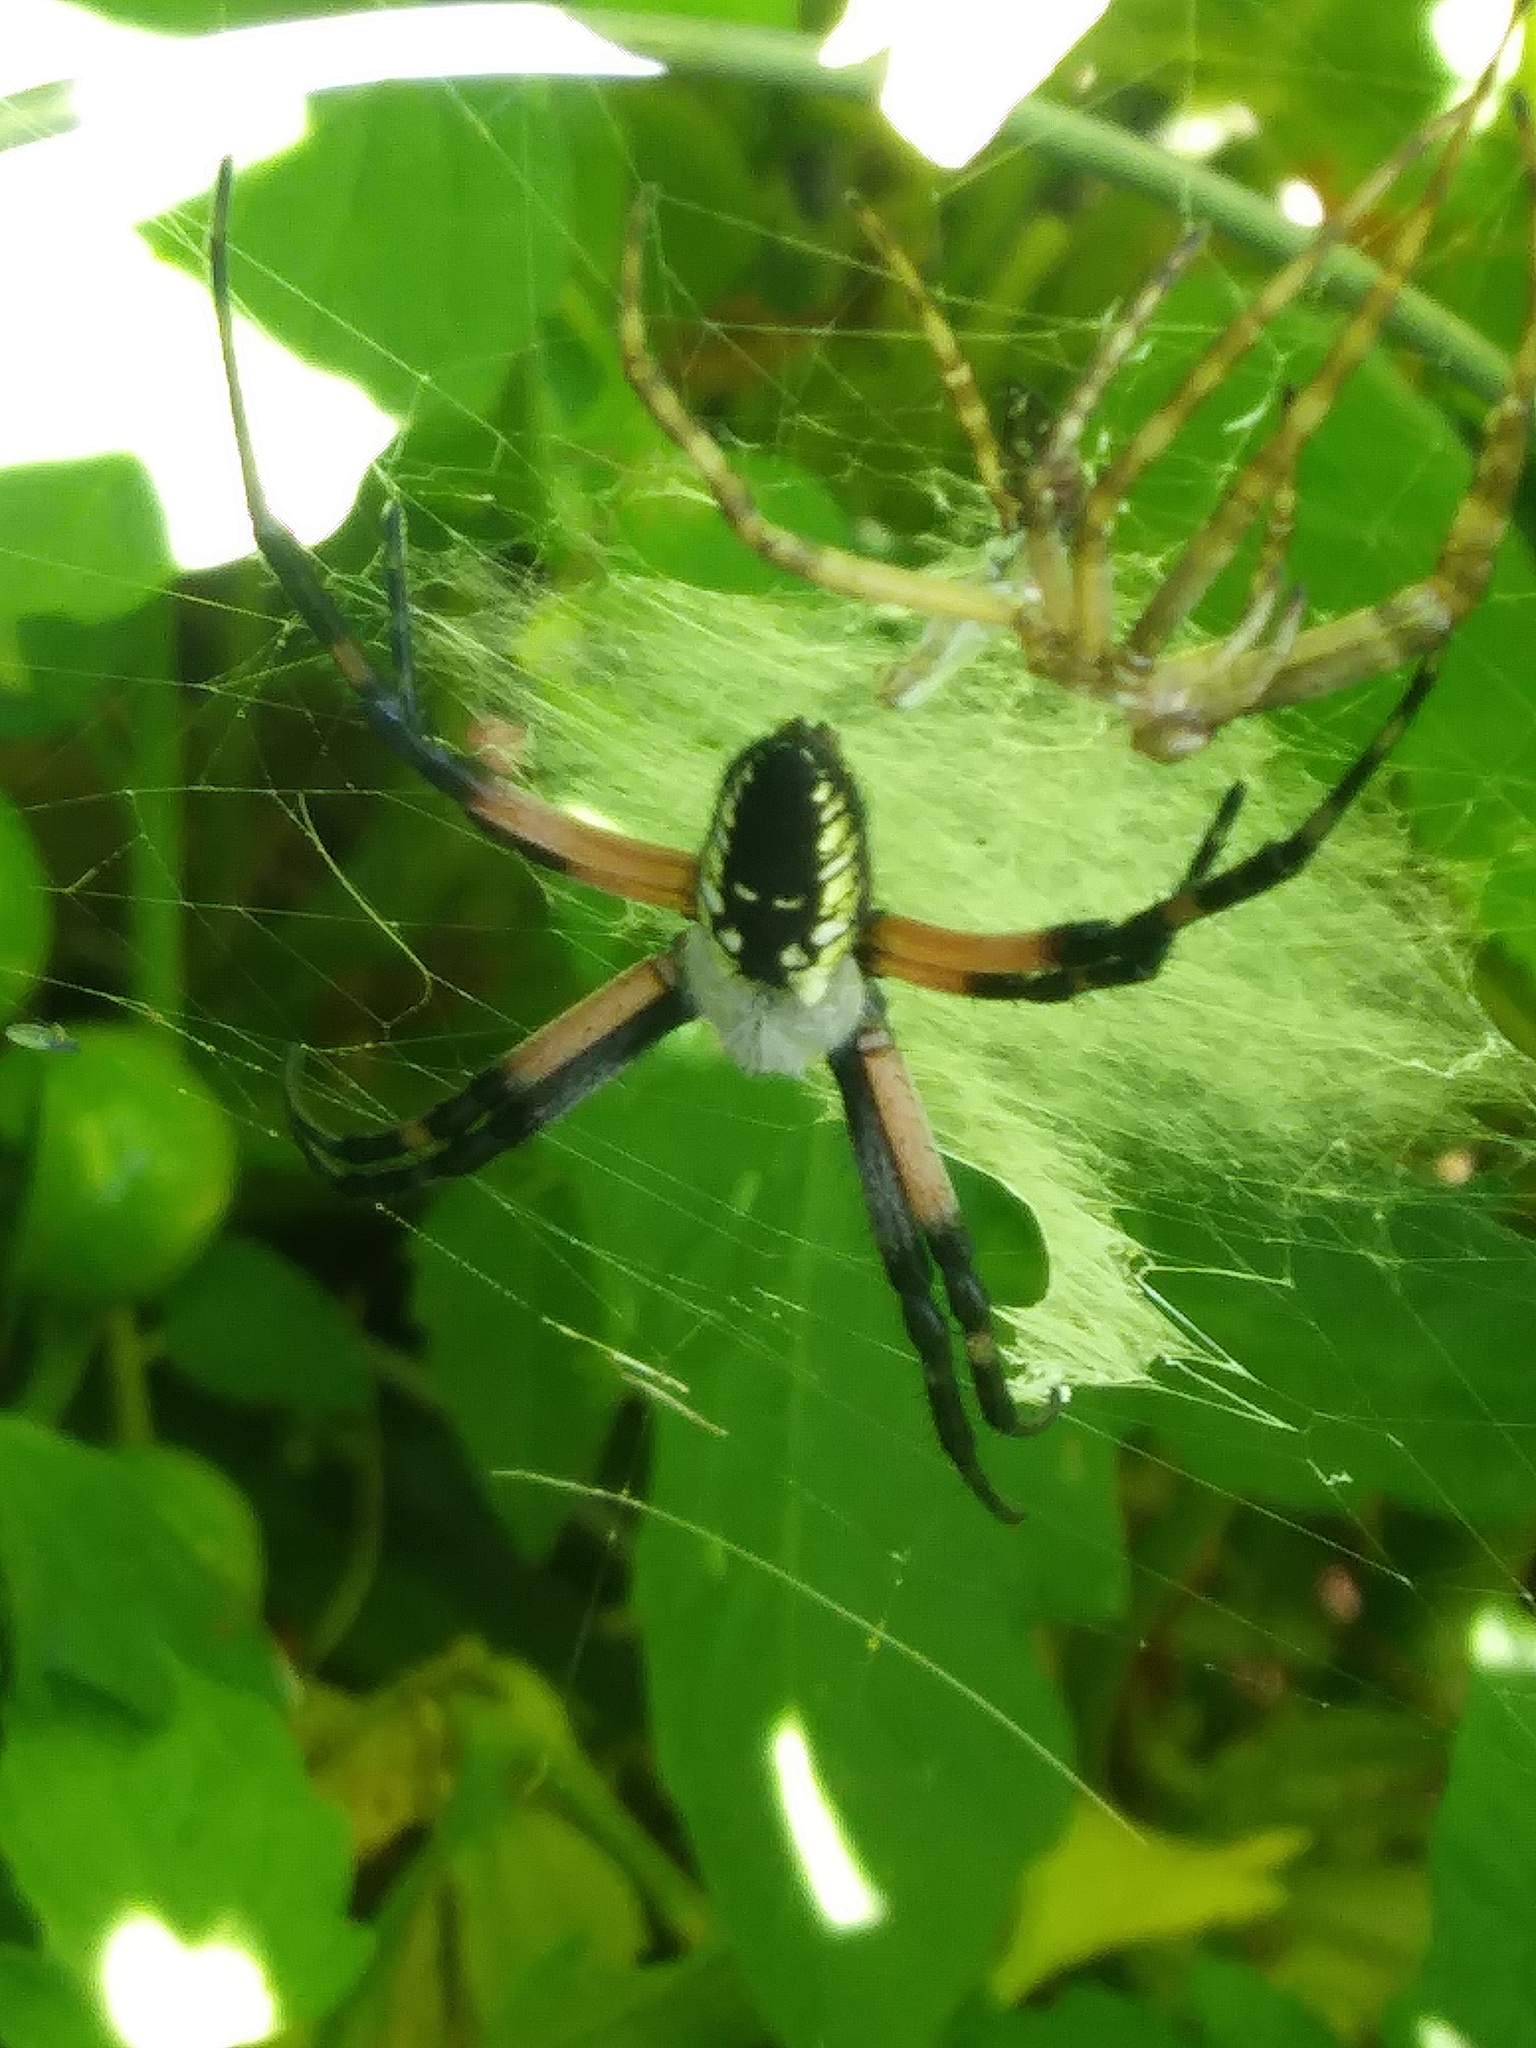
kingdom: Animalia
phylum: Arthropoda
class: Arachnida
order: Araneae
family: Araneidae
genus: Argiope
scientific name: Argiope aurantia
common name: Orb weavers
